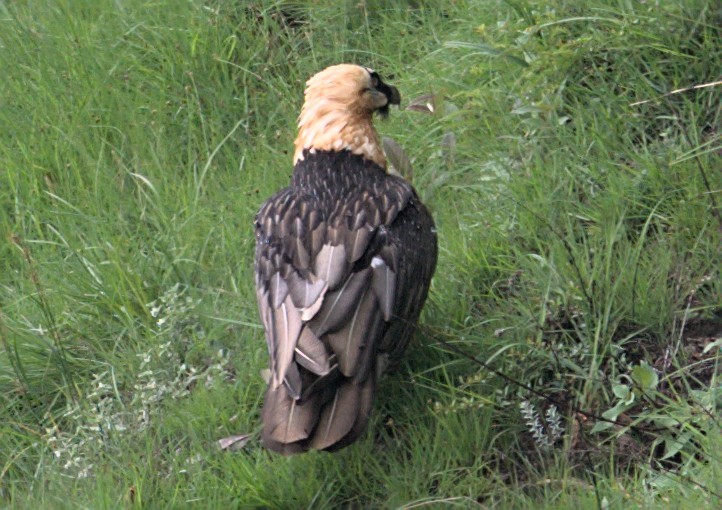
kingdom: Animalia
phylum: Chordata
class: Aves
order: Accipitriformes
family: Accipitridae
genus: Gypaetus
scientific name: Gypaetus barbatus
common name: Bearded vulture
